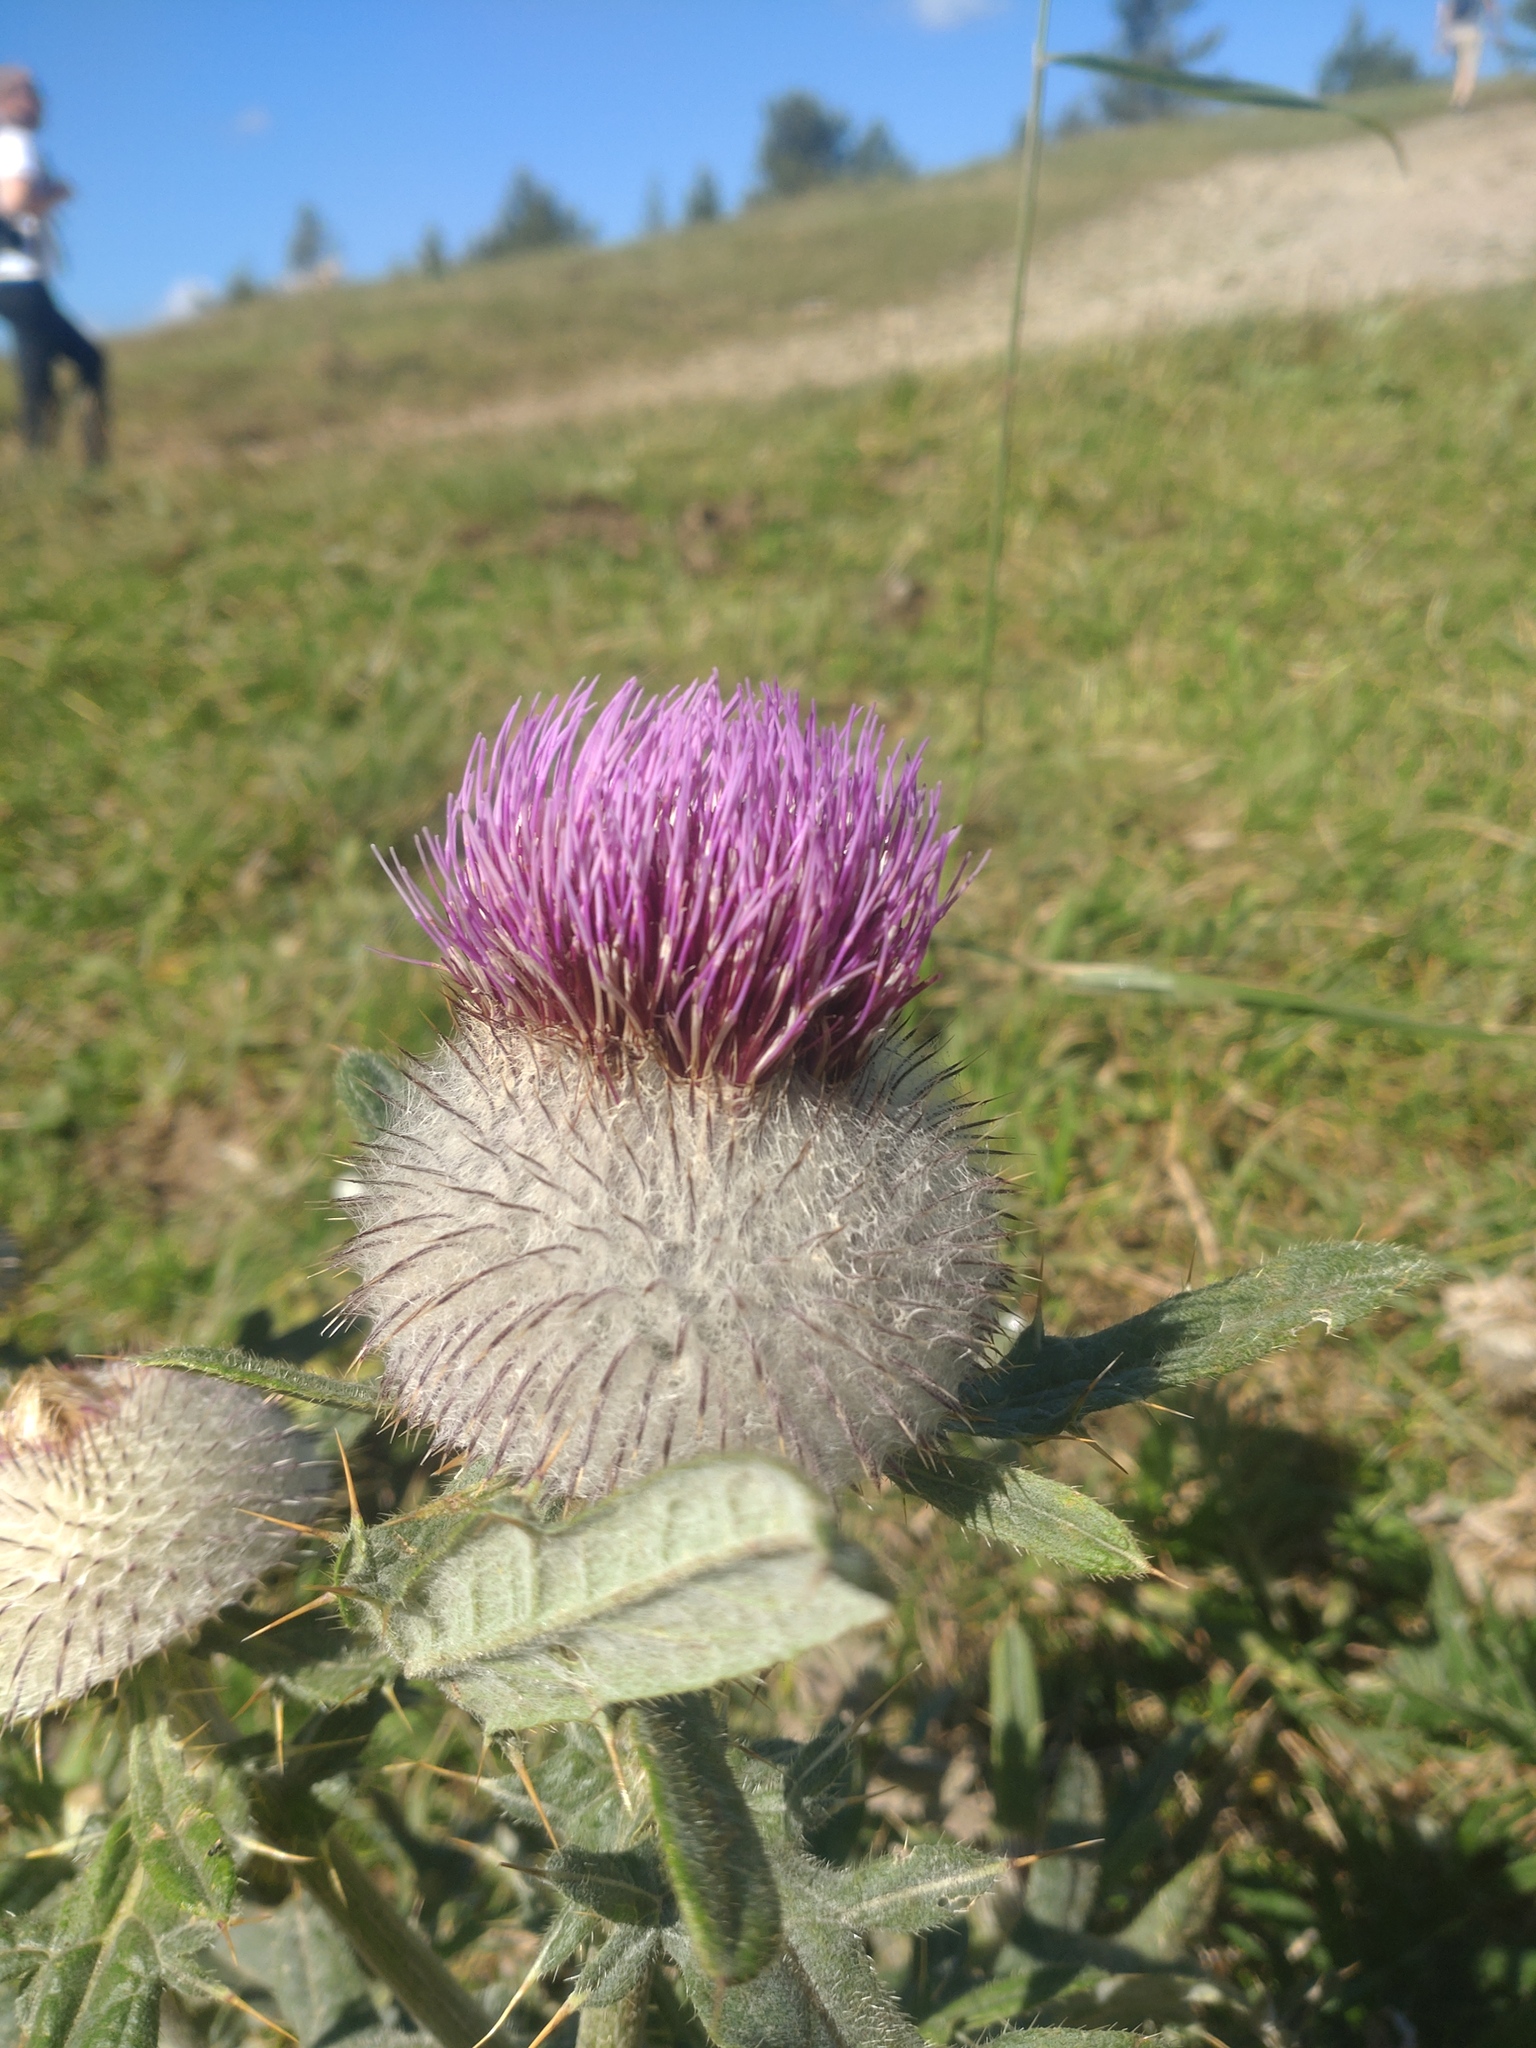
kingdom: Plantae
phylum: Tracheophyta
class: Magnoliopsida
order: Asterales
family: Asteraceae
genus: Lophiolepis
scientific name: Lophiolepis eriophora
